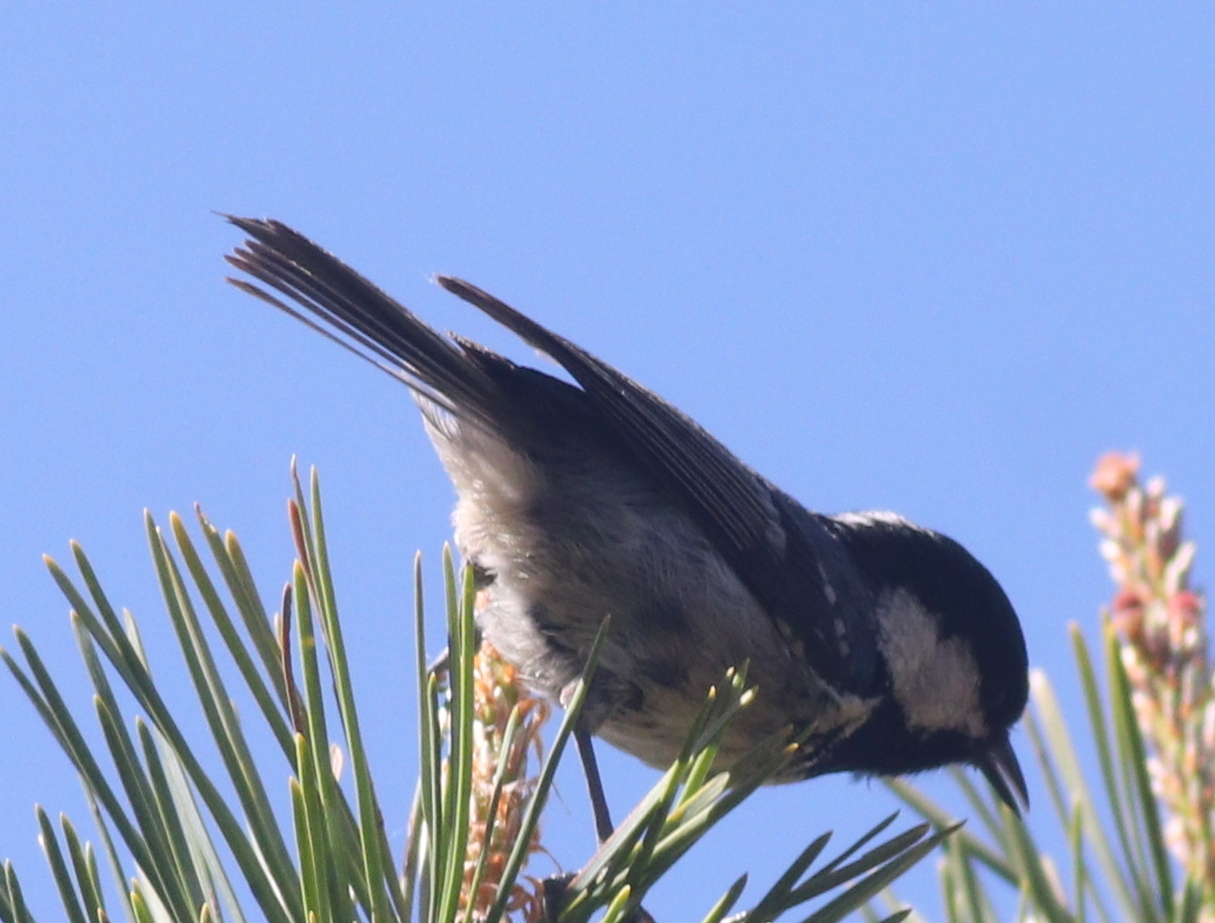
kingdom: Animalia
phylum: Chordata
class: Aves
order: Passeriformes
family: Paridae
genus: Periparus
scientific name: Periparus ater
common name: Coal tit
